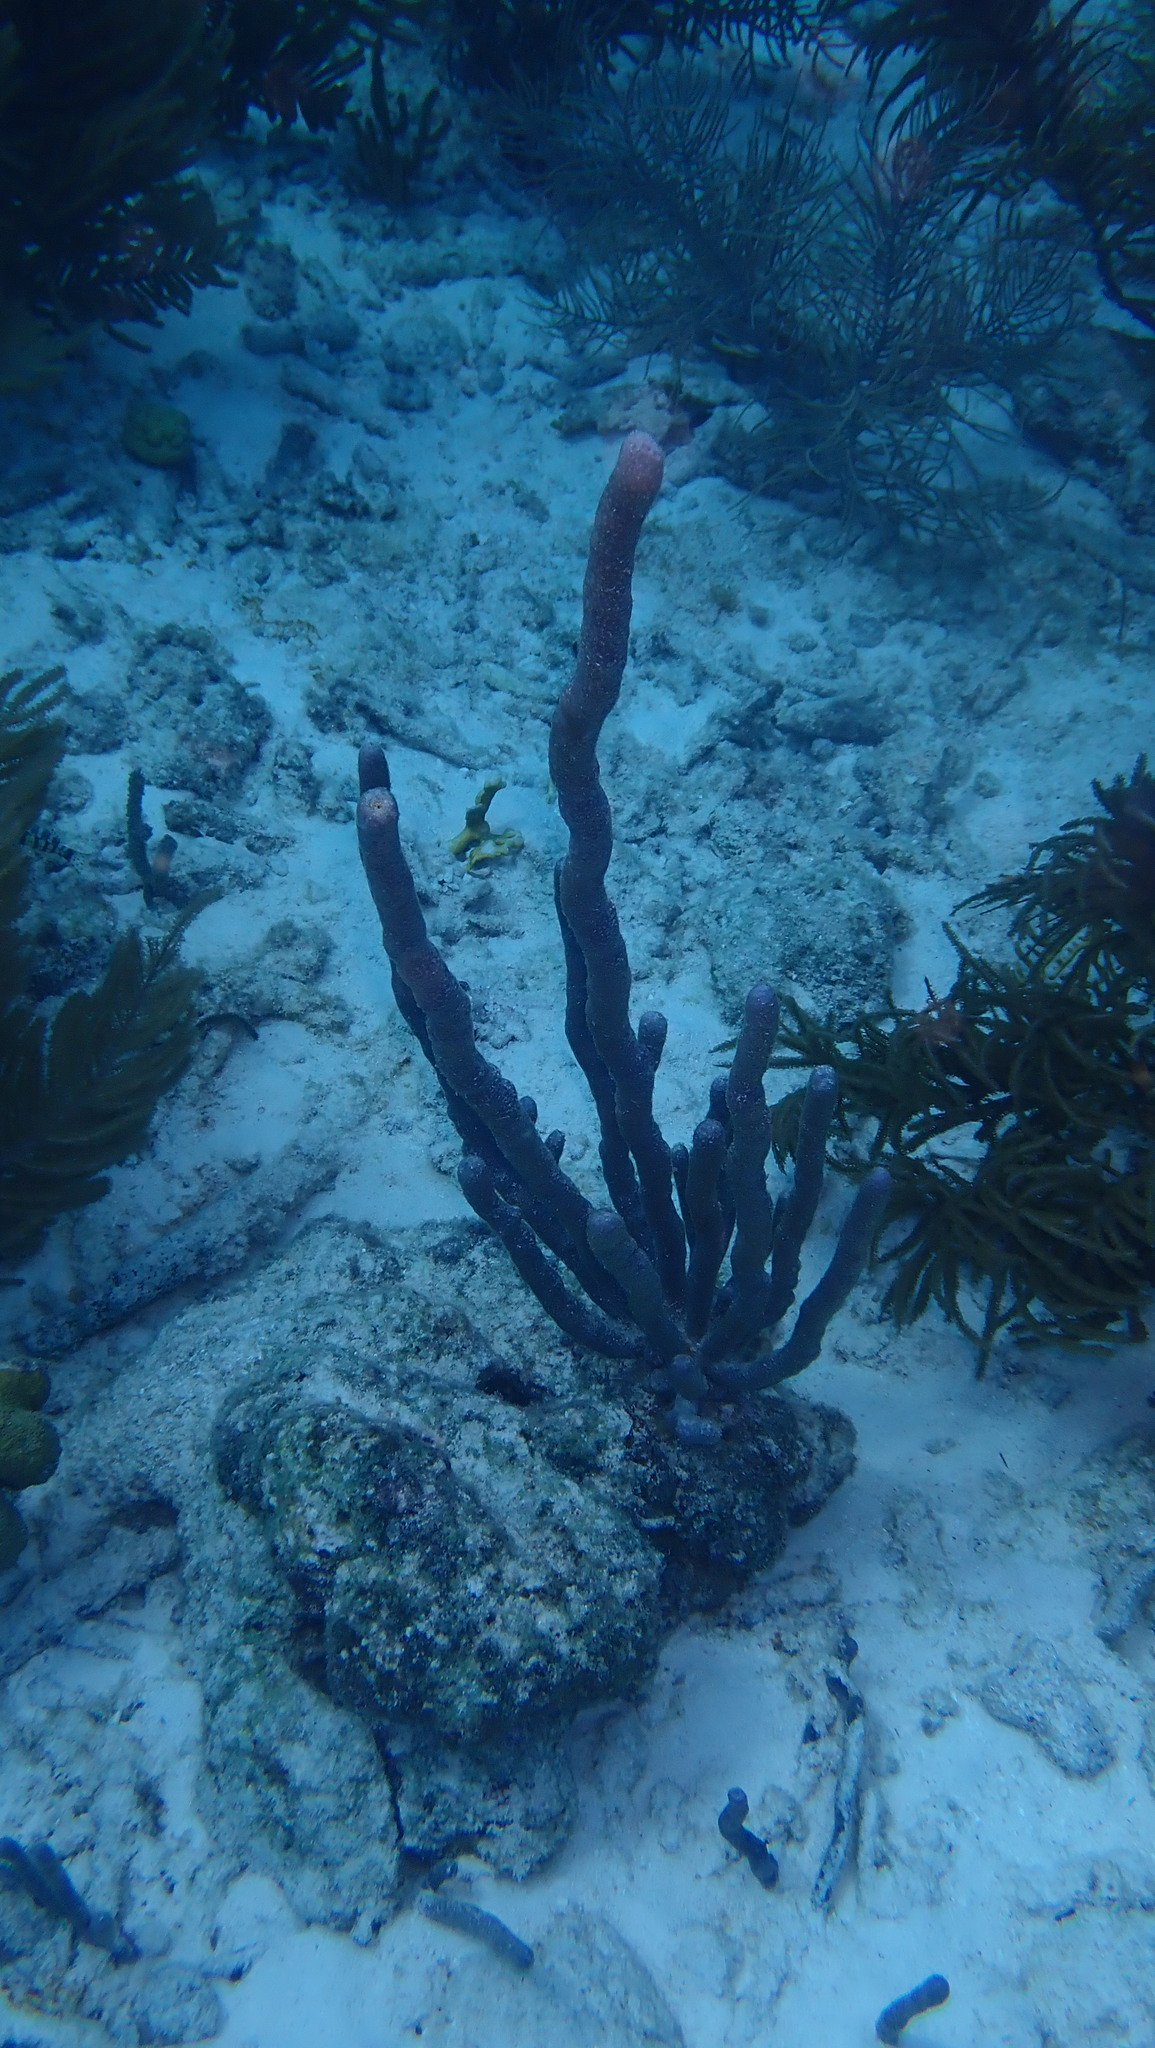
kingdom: Animalia
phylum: Cnidaria
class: Anthozoa
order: Scleralcyonacea
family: Briareidae
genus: Briareum
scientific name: Briareum asbestinum
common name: Corky sea finger
